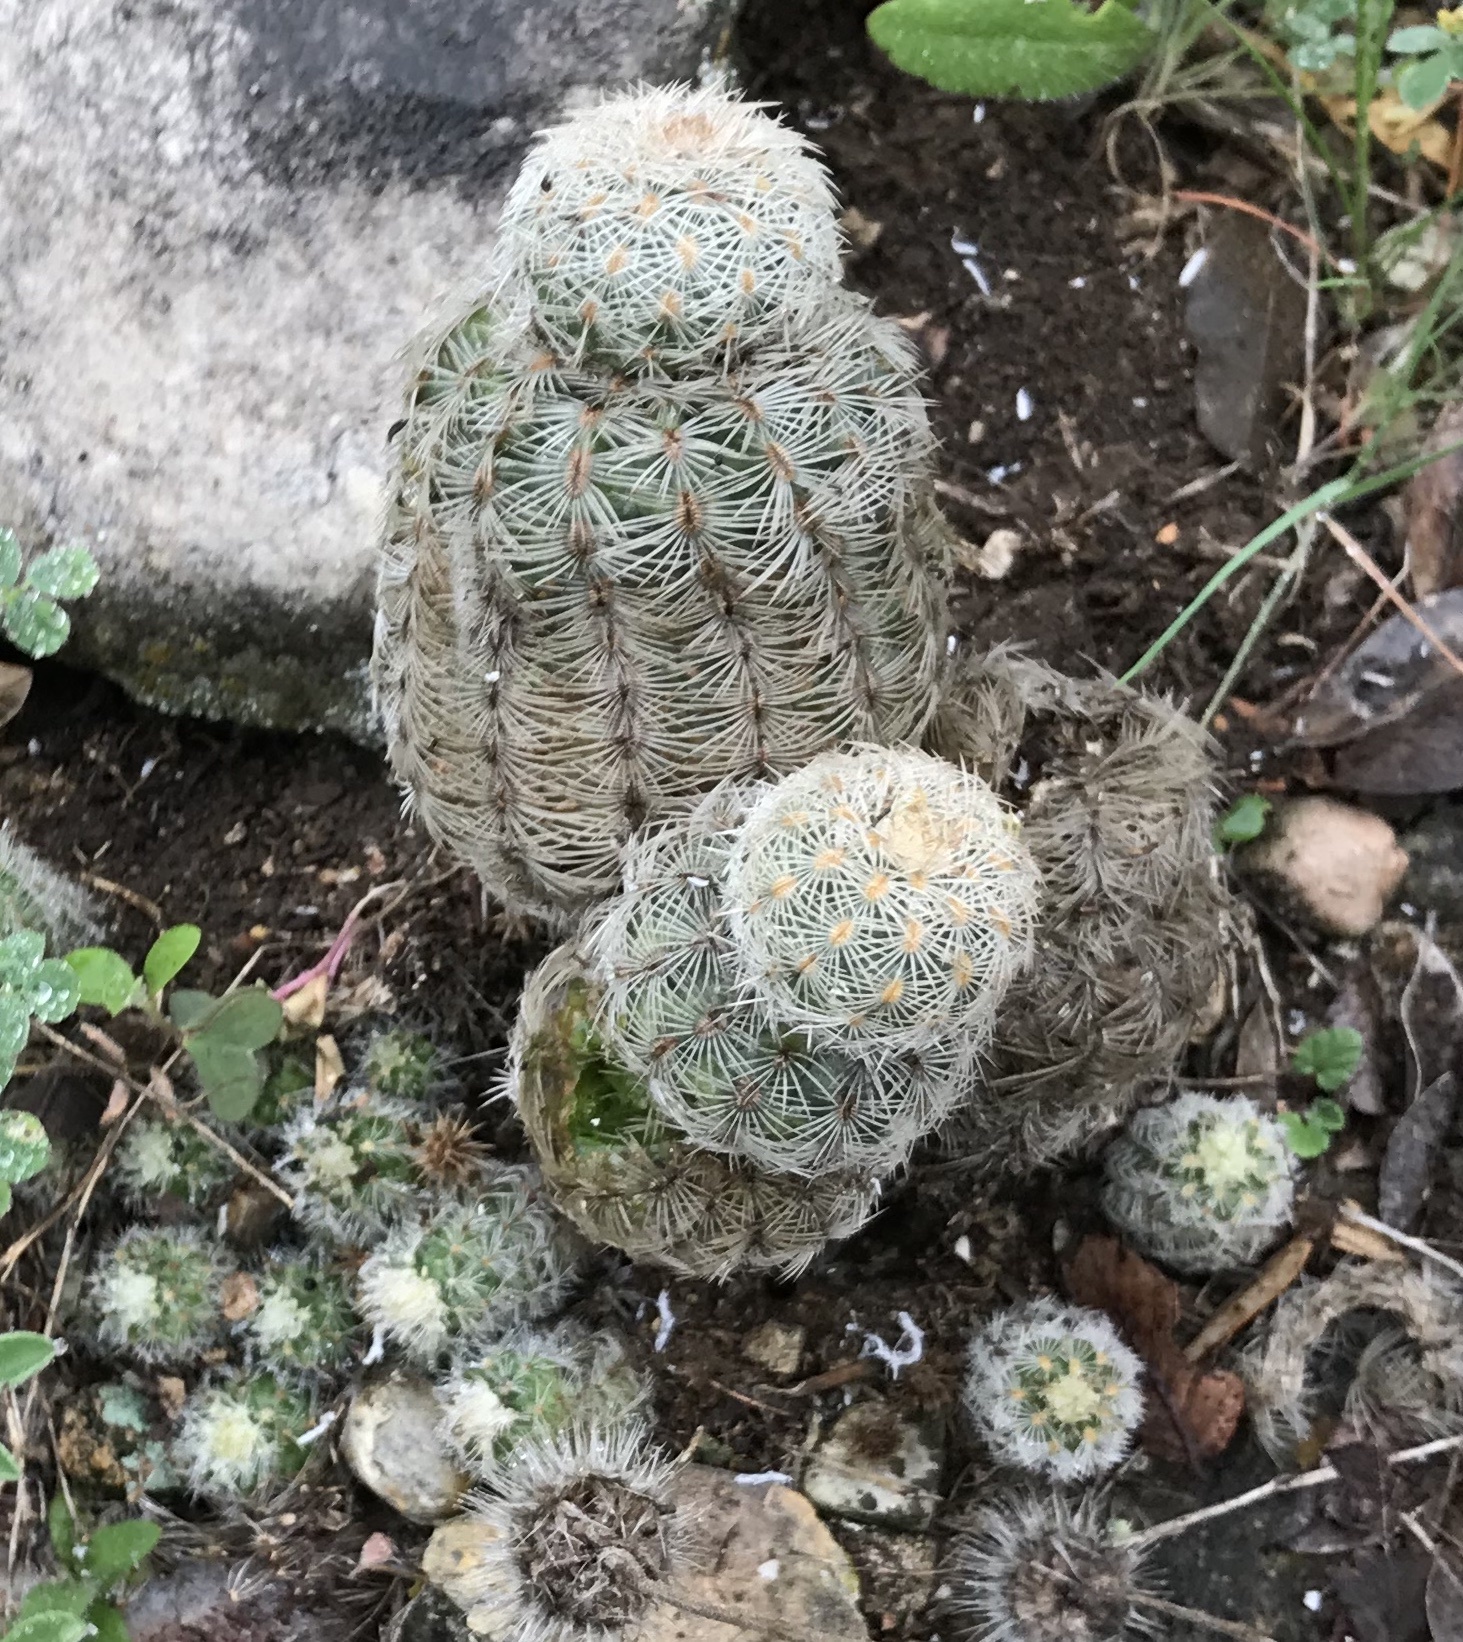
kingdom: Plantae
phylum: Tracheophyta
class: Magnoliopsida
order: Caryophyllales
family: Cactaceae
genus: Echinocereus
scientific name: Echinocereus reichenbachii
